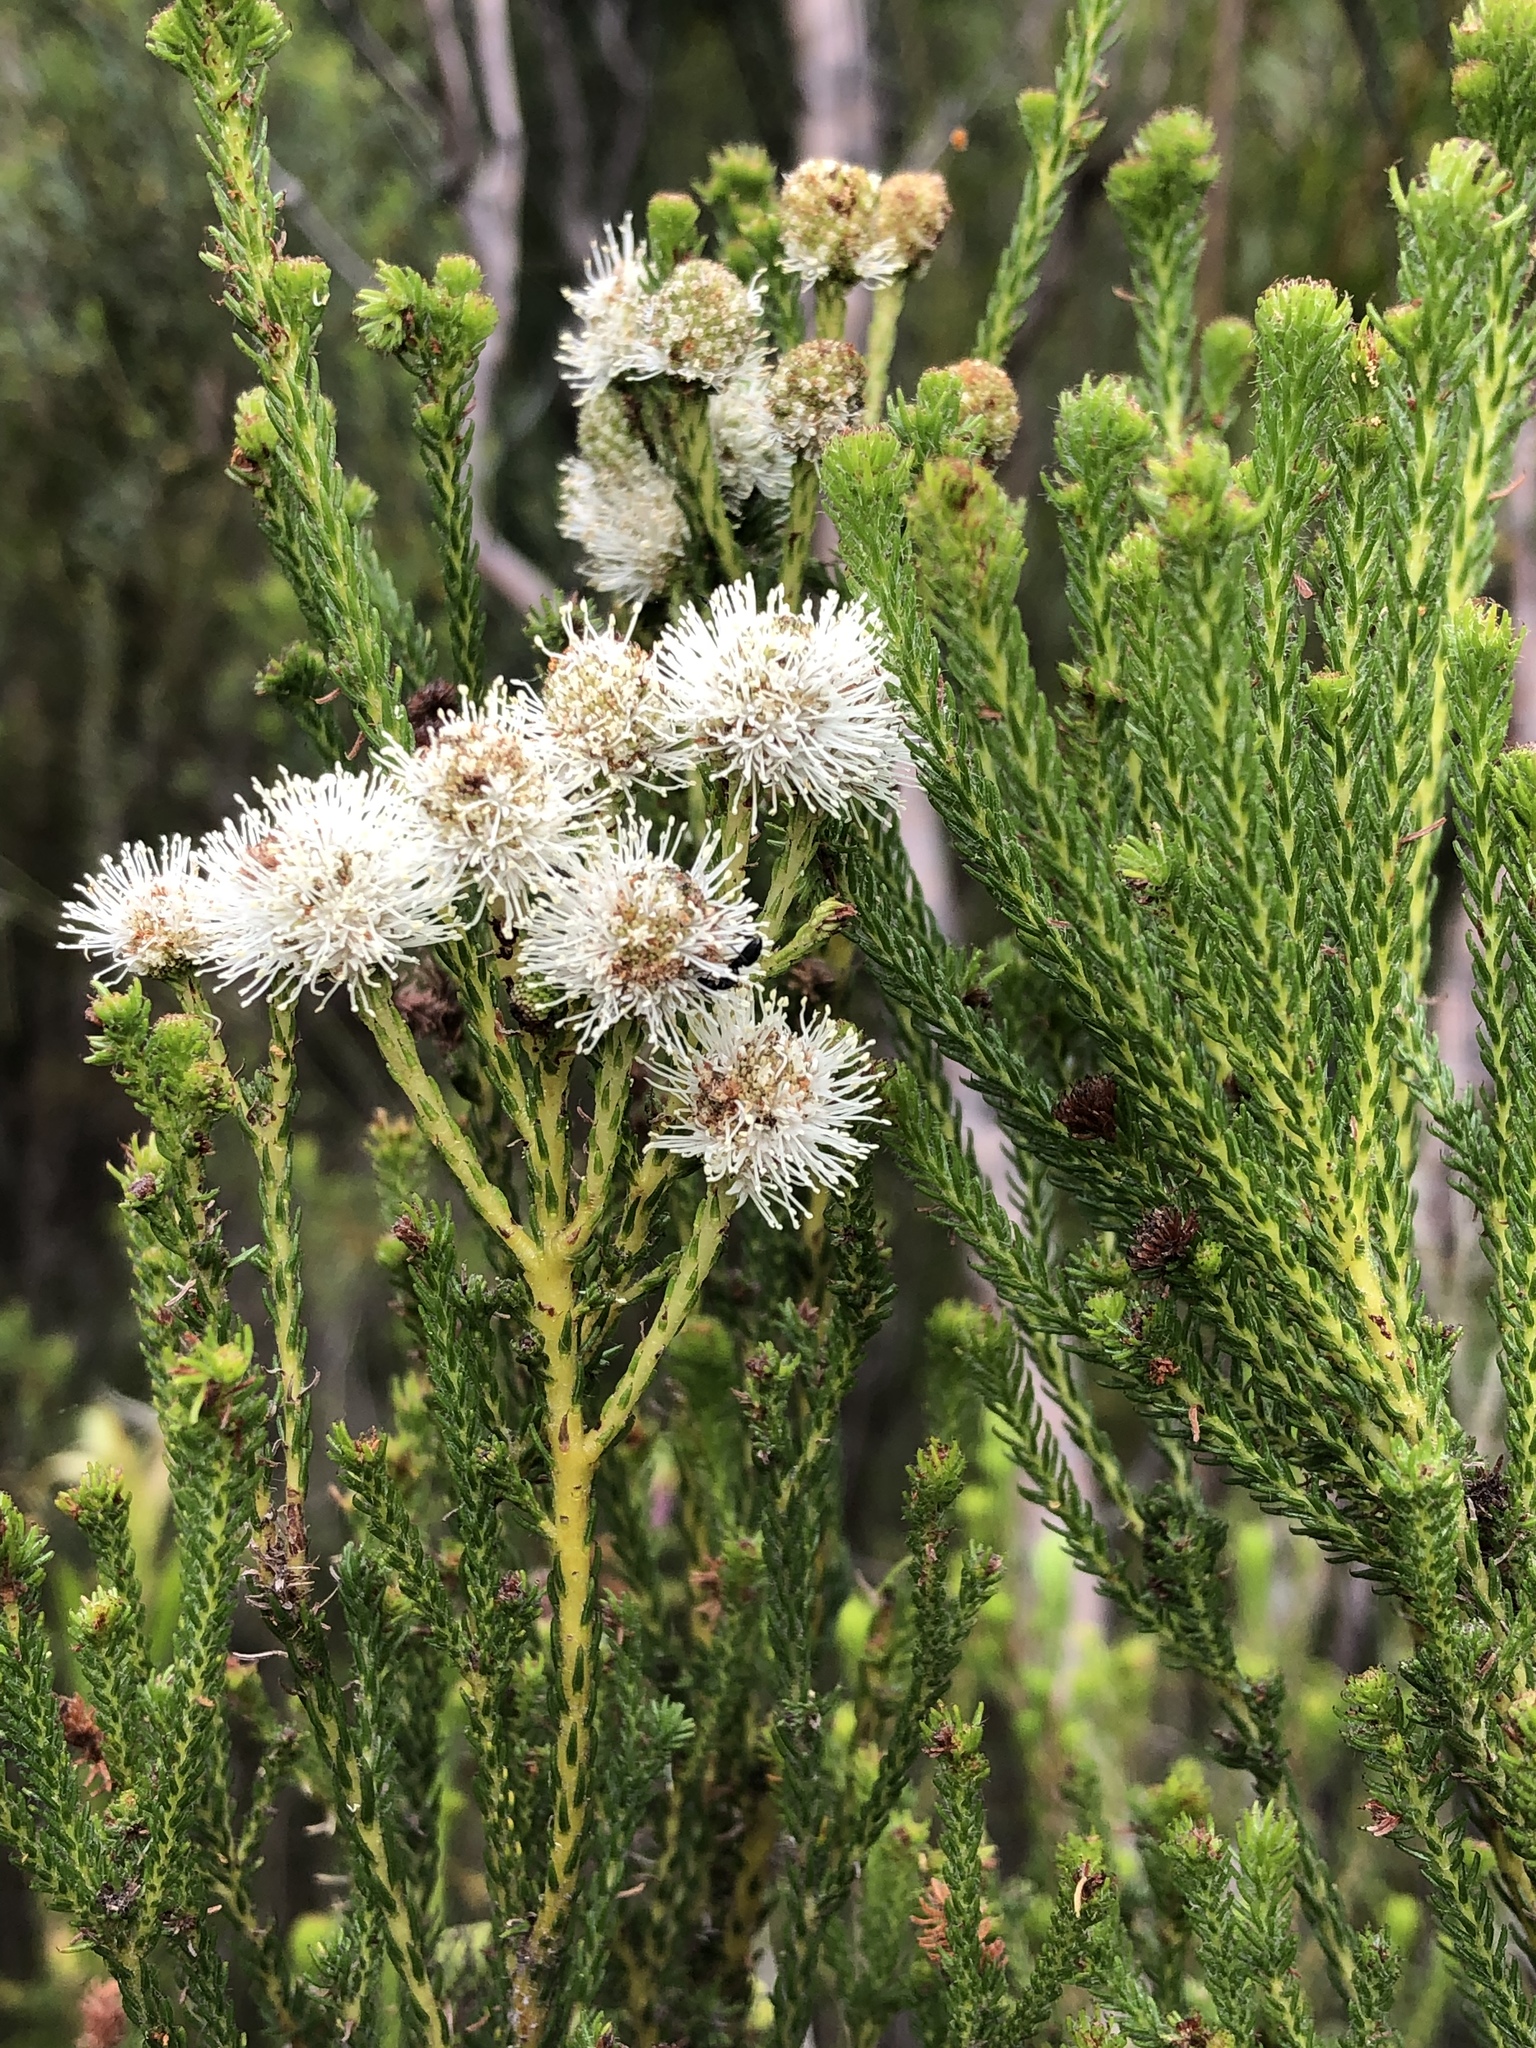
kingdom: Plantae
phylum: Tracheophyta
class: Magnoliopsida
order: Bruniales
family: Bruniaceae
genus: Berzelia
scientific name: Berzelia intermedia
